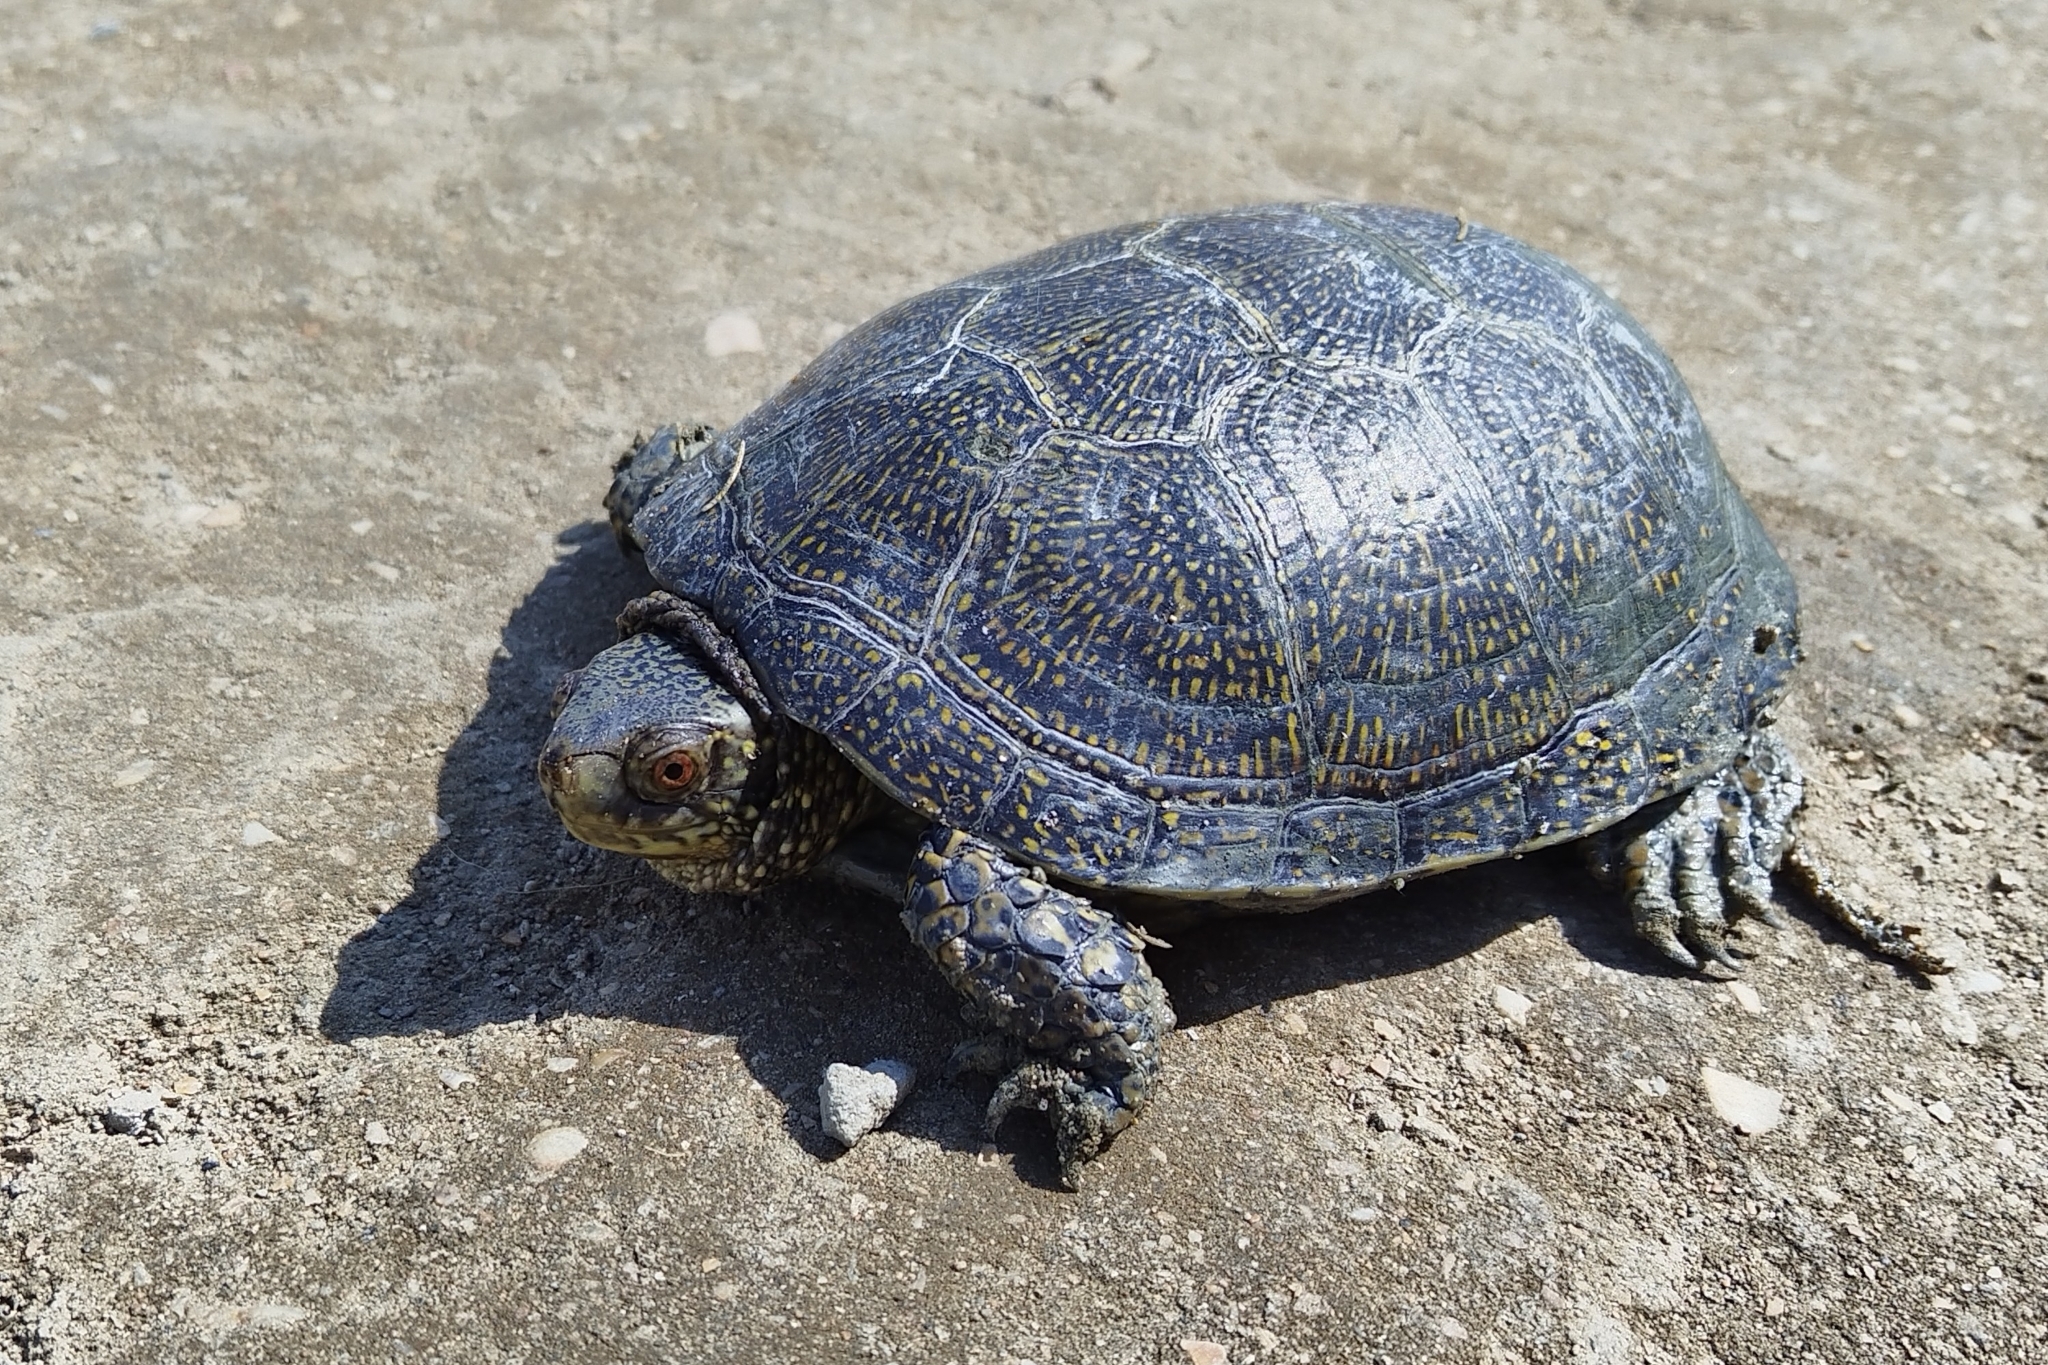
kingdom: Animalia
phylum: Chordata
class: Testudines
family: Emydidae
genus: Emys
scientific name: Emys orbicularis
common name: European pond turtle
